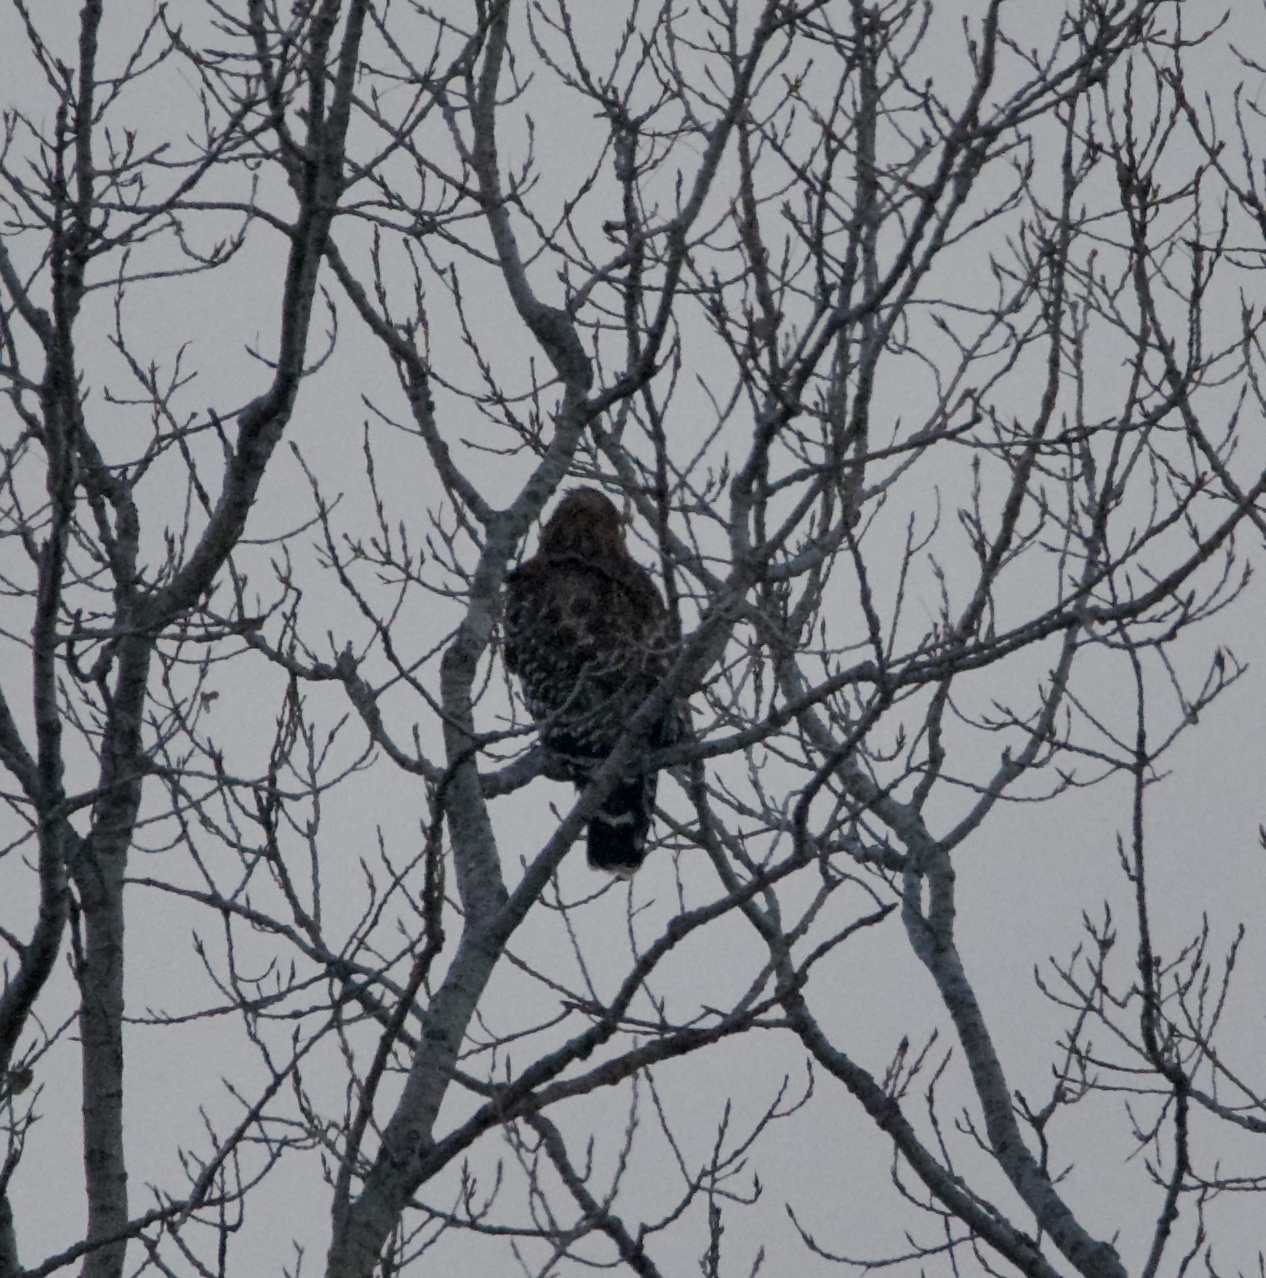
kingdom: Animalia
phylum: Chordata
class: Aves
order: Accipitriformes
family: Accipitridae
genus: Buteo
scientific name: Buteo lineatus
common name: Red-shouldered hawk
